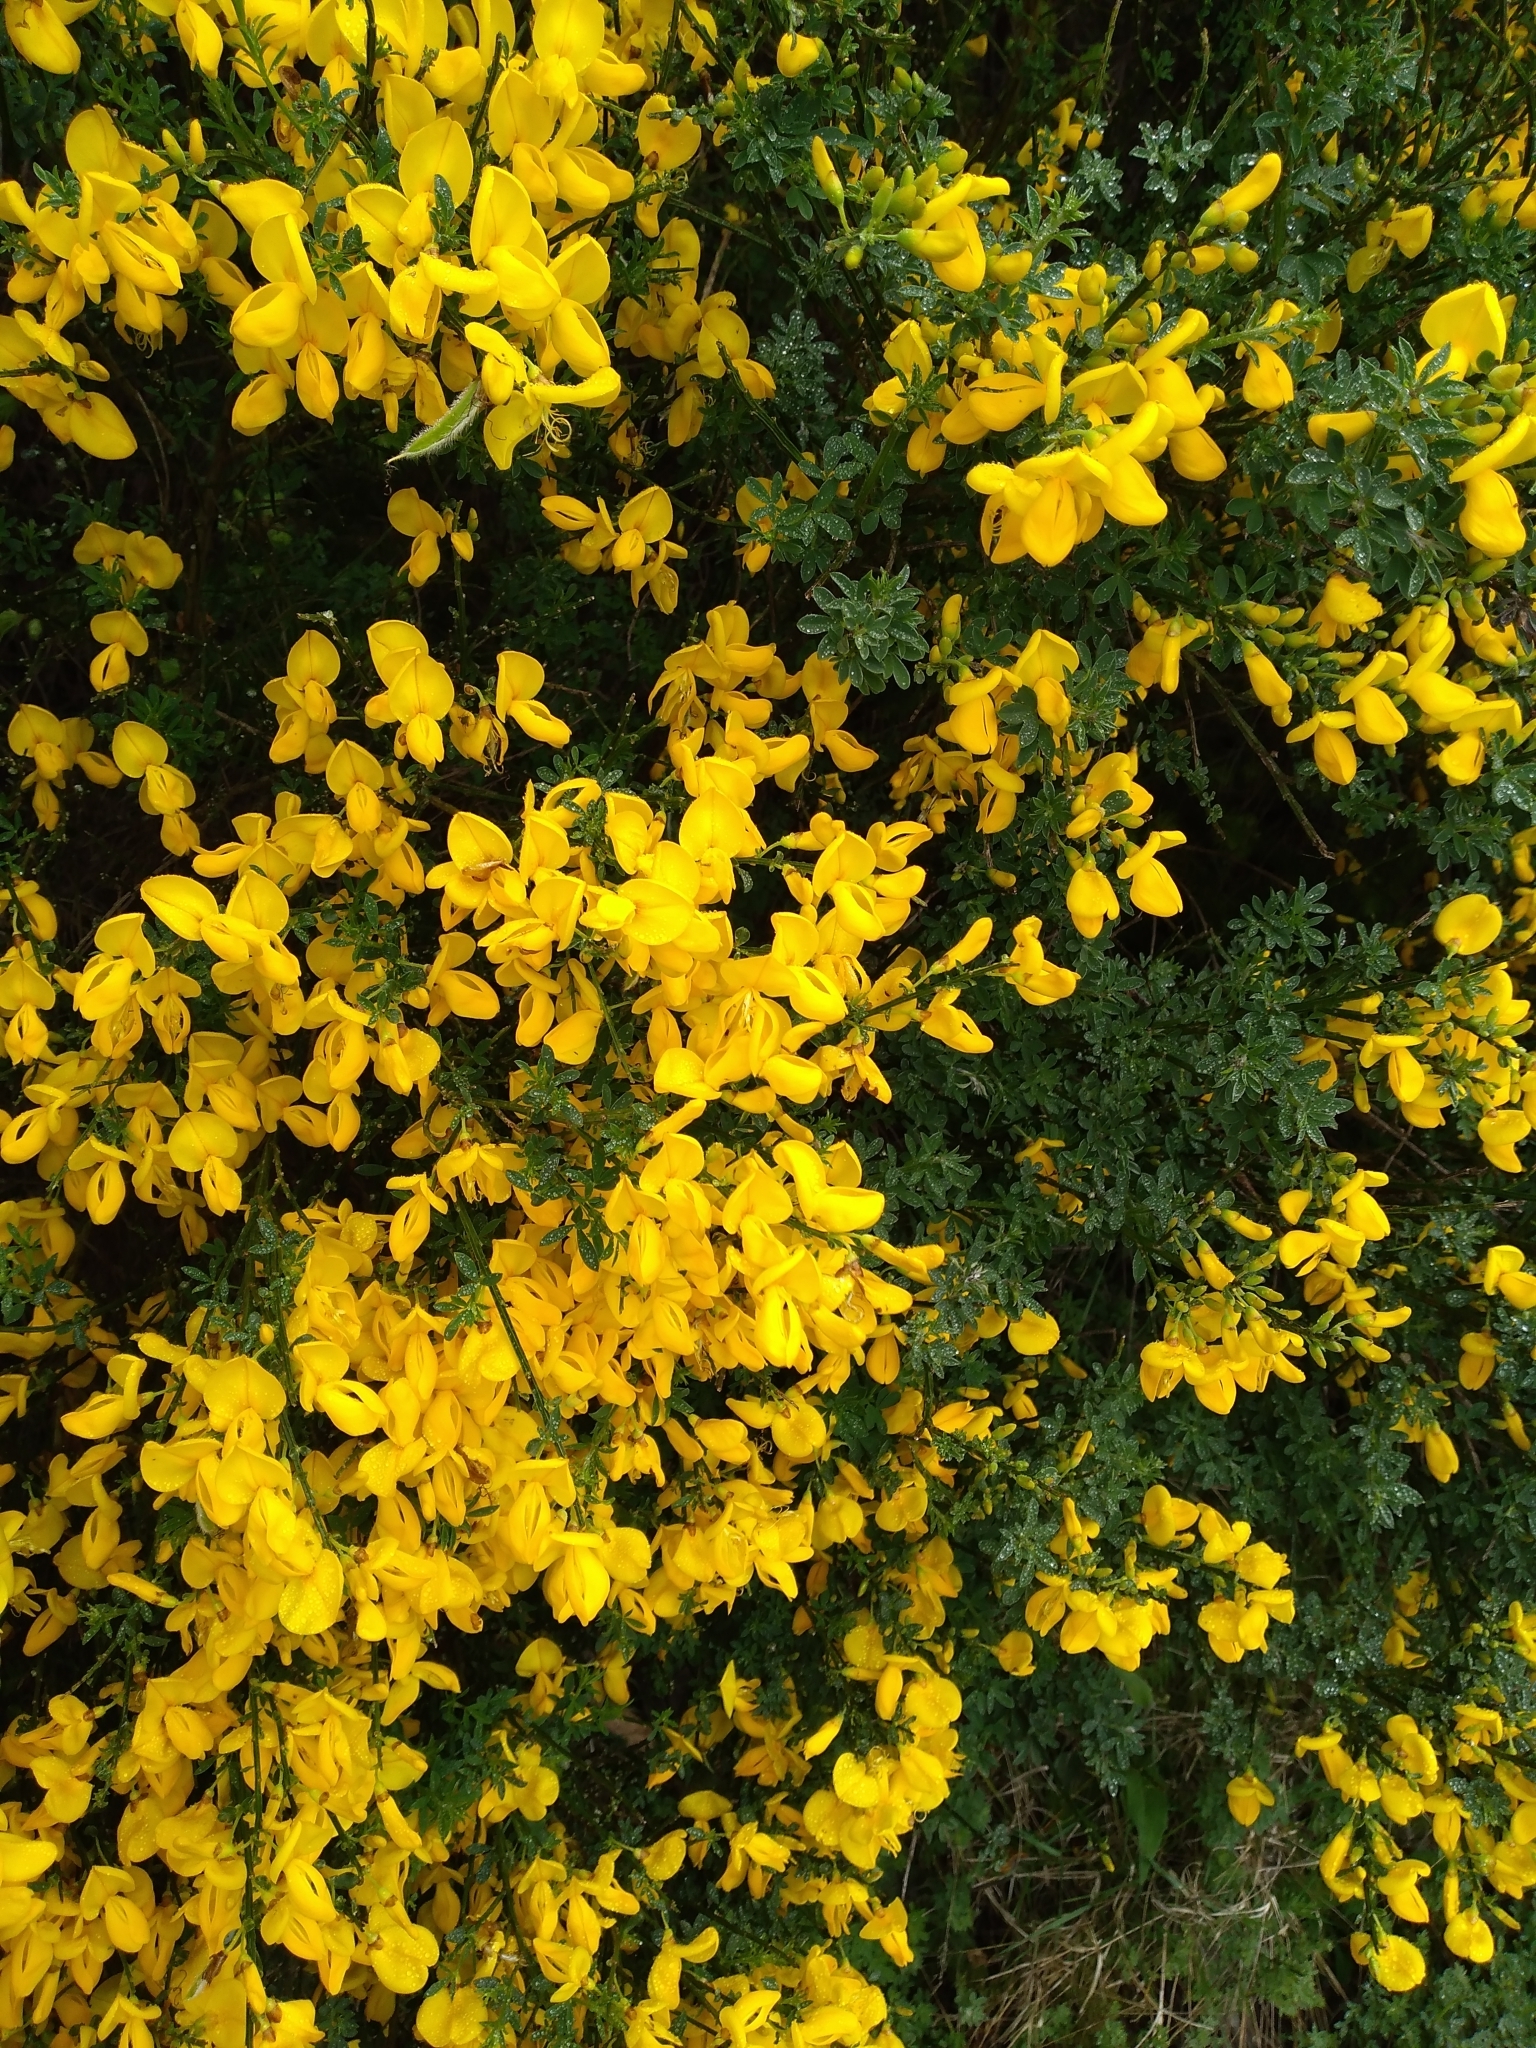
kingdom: Plantae
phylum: Tracheophyta
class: Magnoliopsida
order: Fabales
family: Fabaceae
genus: Cytisus
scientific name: Cytisus scoparius
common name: Scotch broom
